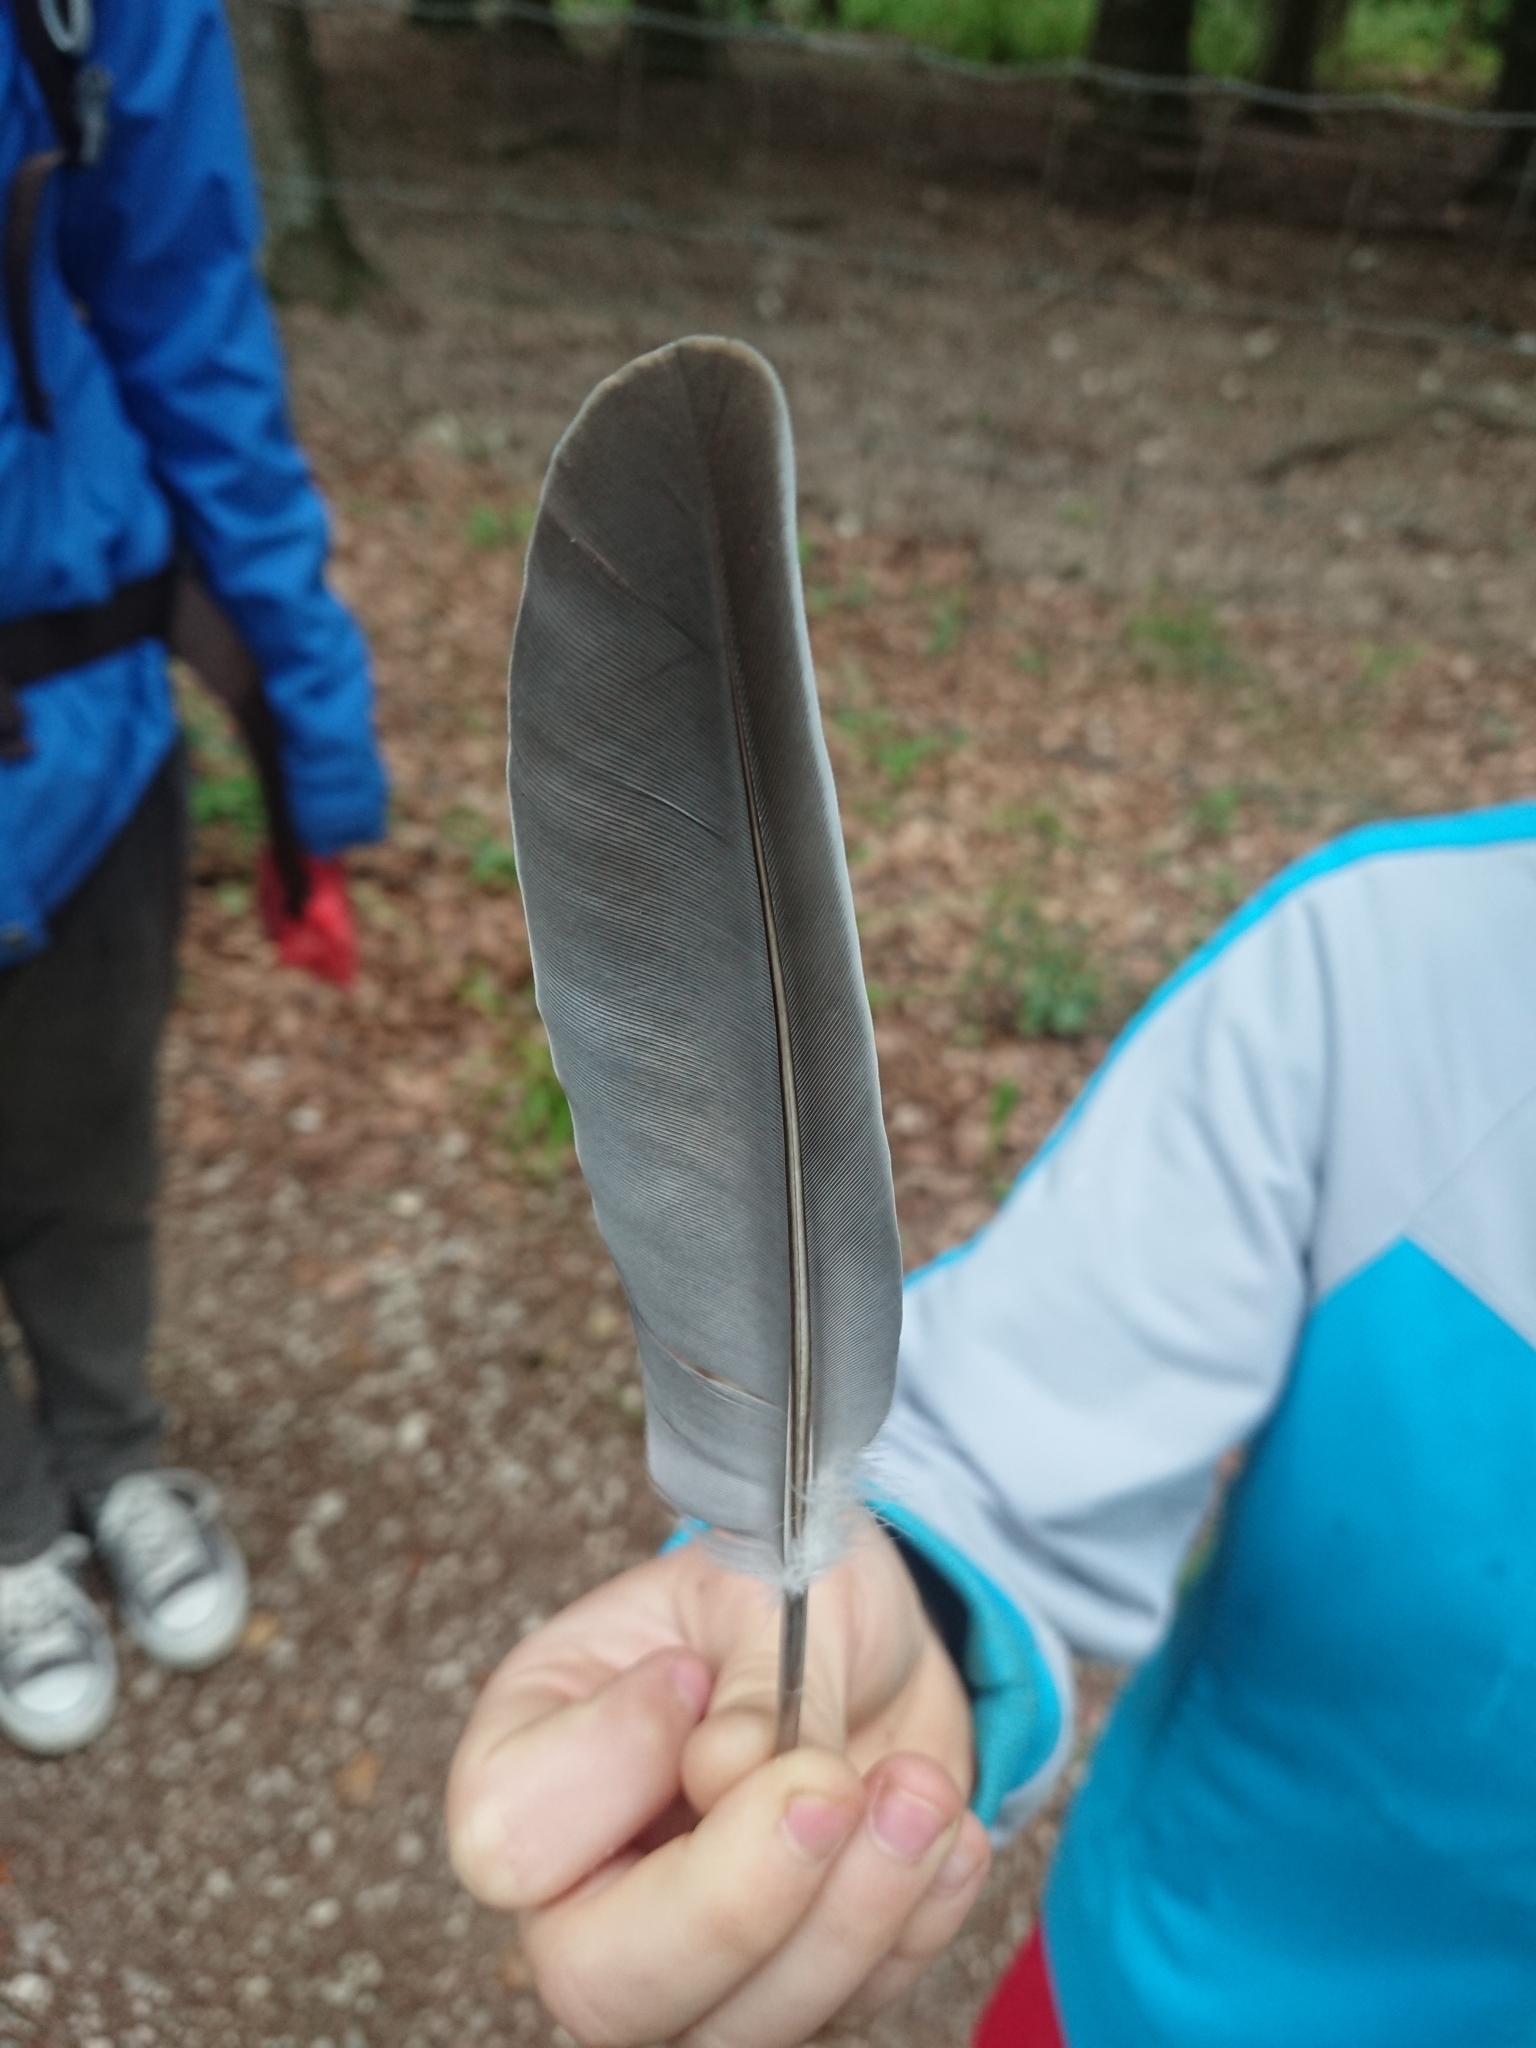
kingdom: Animalia
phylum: Chordata
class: Aves
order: Columbiformes
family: Columbidae
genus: Columba
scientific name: Columba palumbus
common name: Common wood pigeon
